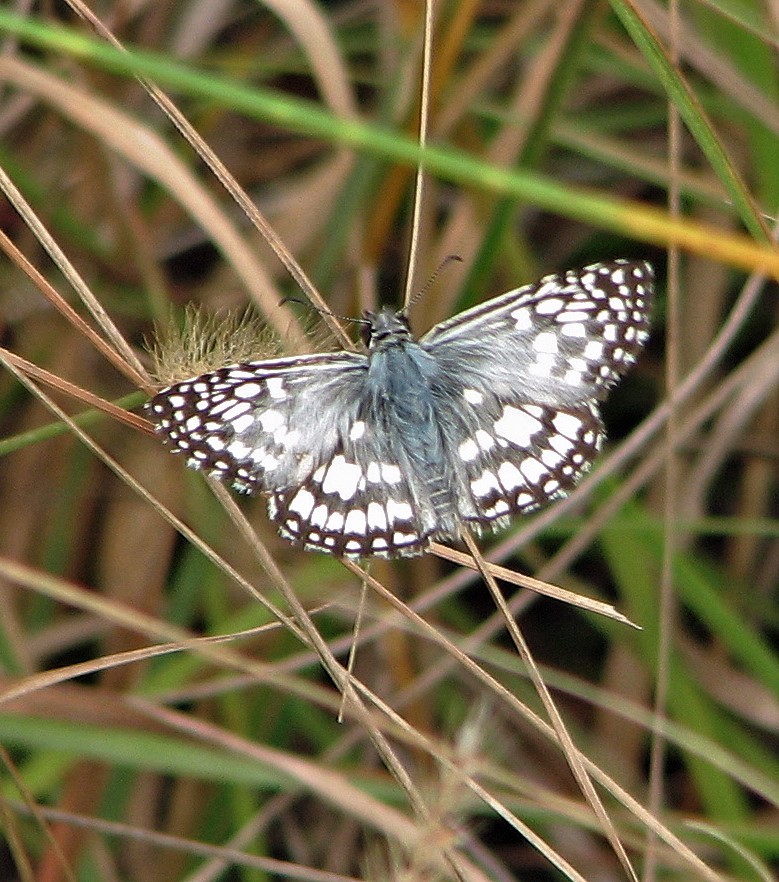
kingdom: Animalia
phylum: Arthropoda
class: Insecta
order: Lepidoptera
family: Hesperiidae
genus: Pyrgus
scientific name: Pyrgus oileus
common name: Tropical checkered-skipper
